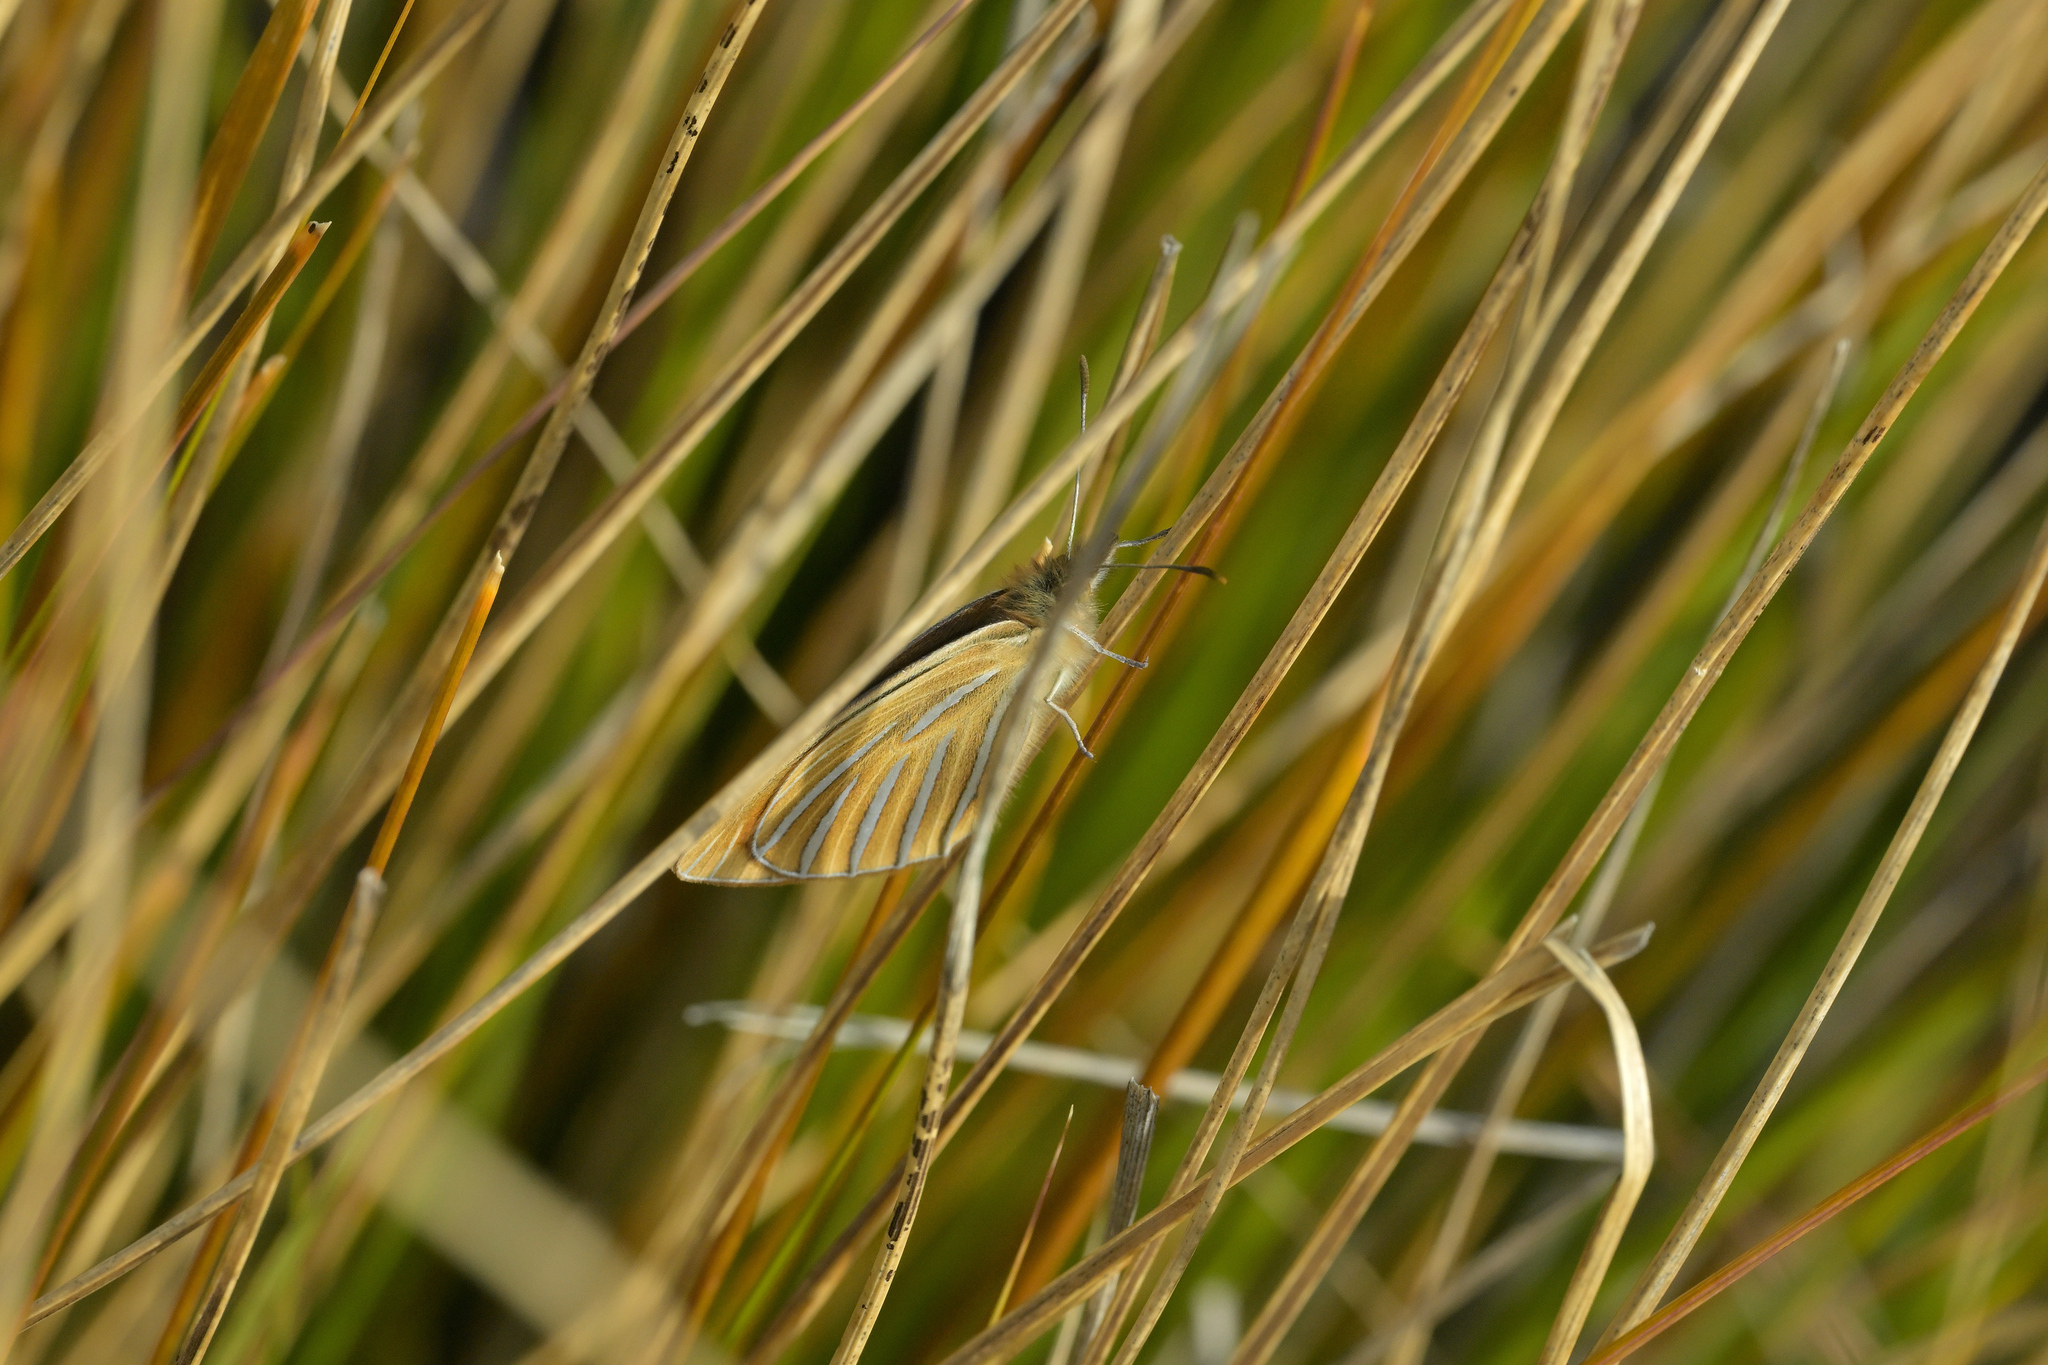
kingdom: Animalia
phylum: Arthropoda
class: Insecta
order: Lepidoptera
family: Nymphalidae
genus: Argyrophenga
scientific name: Argyrophenga antipodum
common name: Common tussock butterfly
